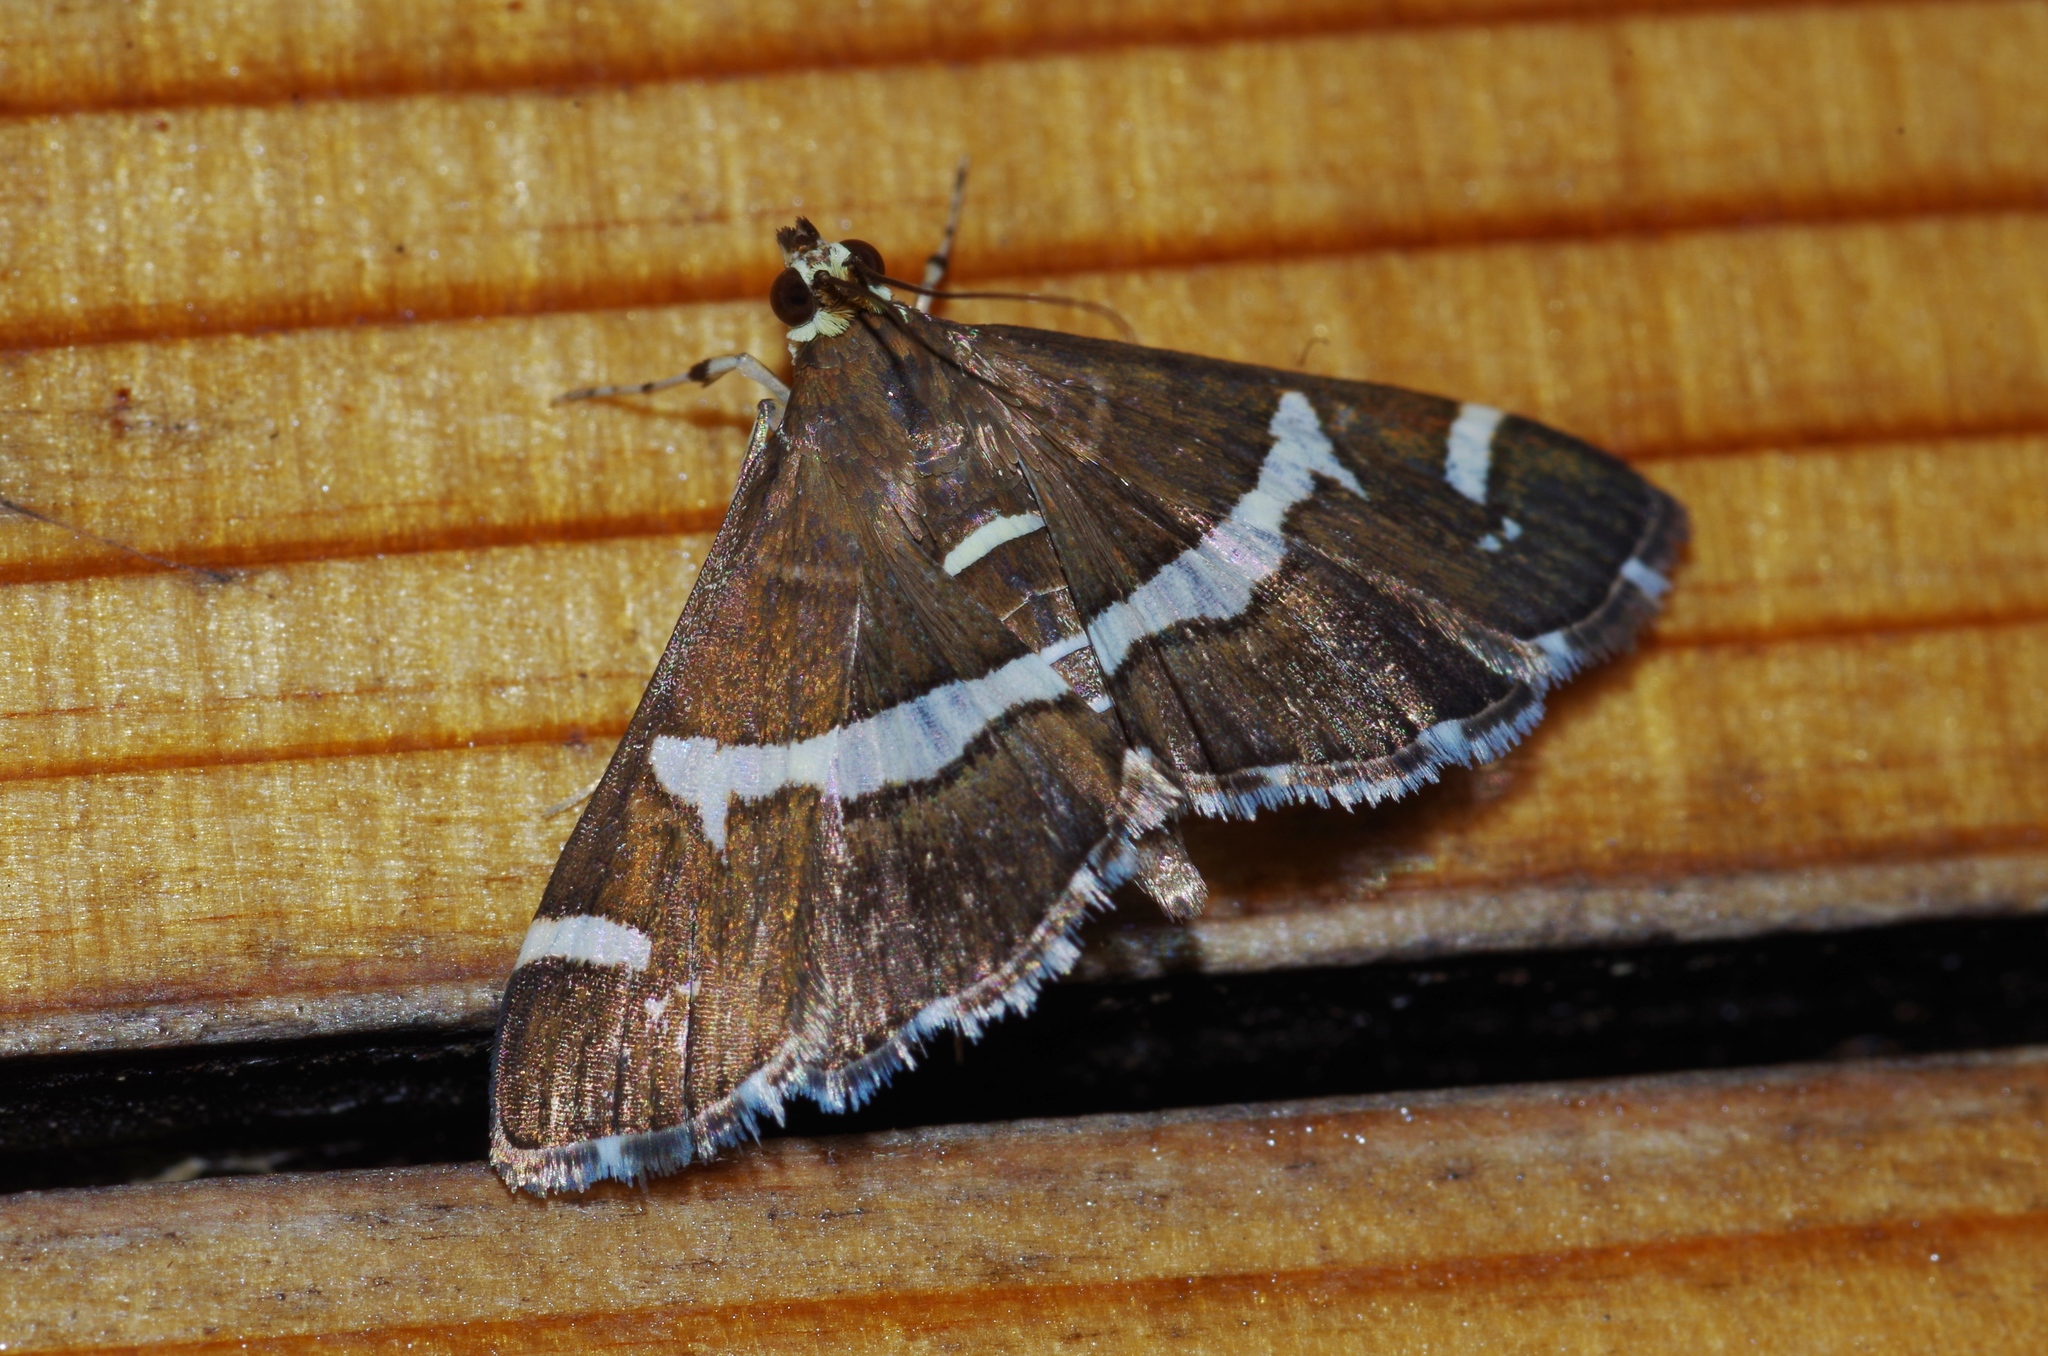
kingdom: Animalia
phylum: Arthropoda
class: Insecta
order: Lepidoptera
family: Crambidae
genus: Spoladea
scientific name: Spoladea recurvalis
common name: Beet webworm moth
